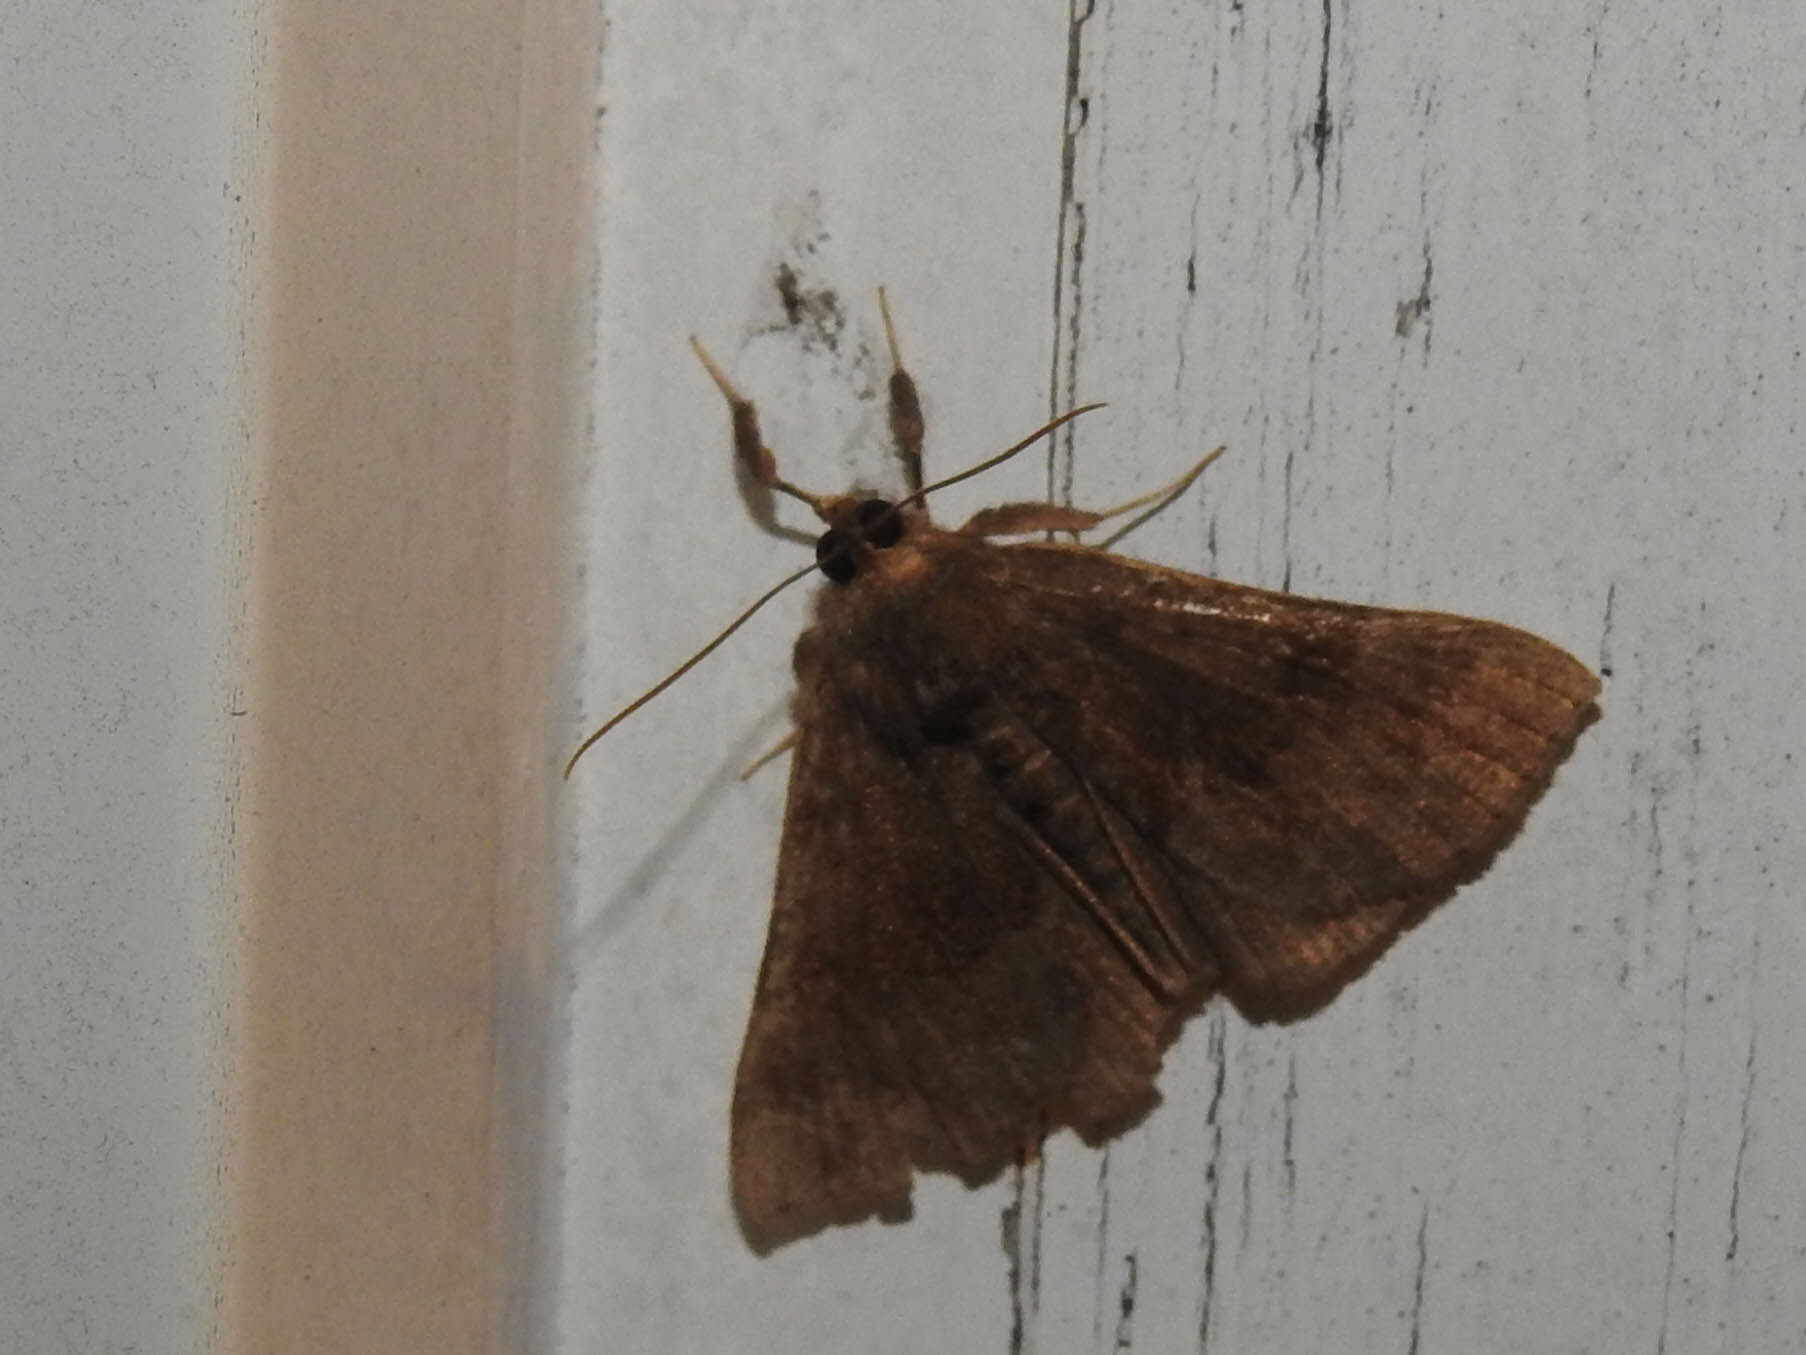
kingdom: Animalia
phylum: Arthropoda
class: Insecta
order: Lepidoptera
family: Erebidae
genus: Hypena
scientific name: Hypena madefactalis
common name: Gray-edged snout
